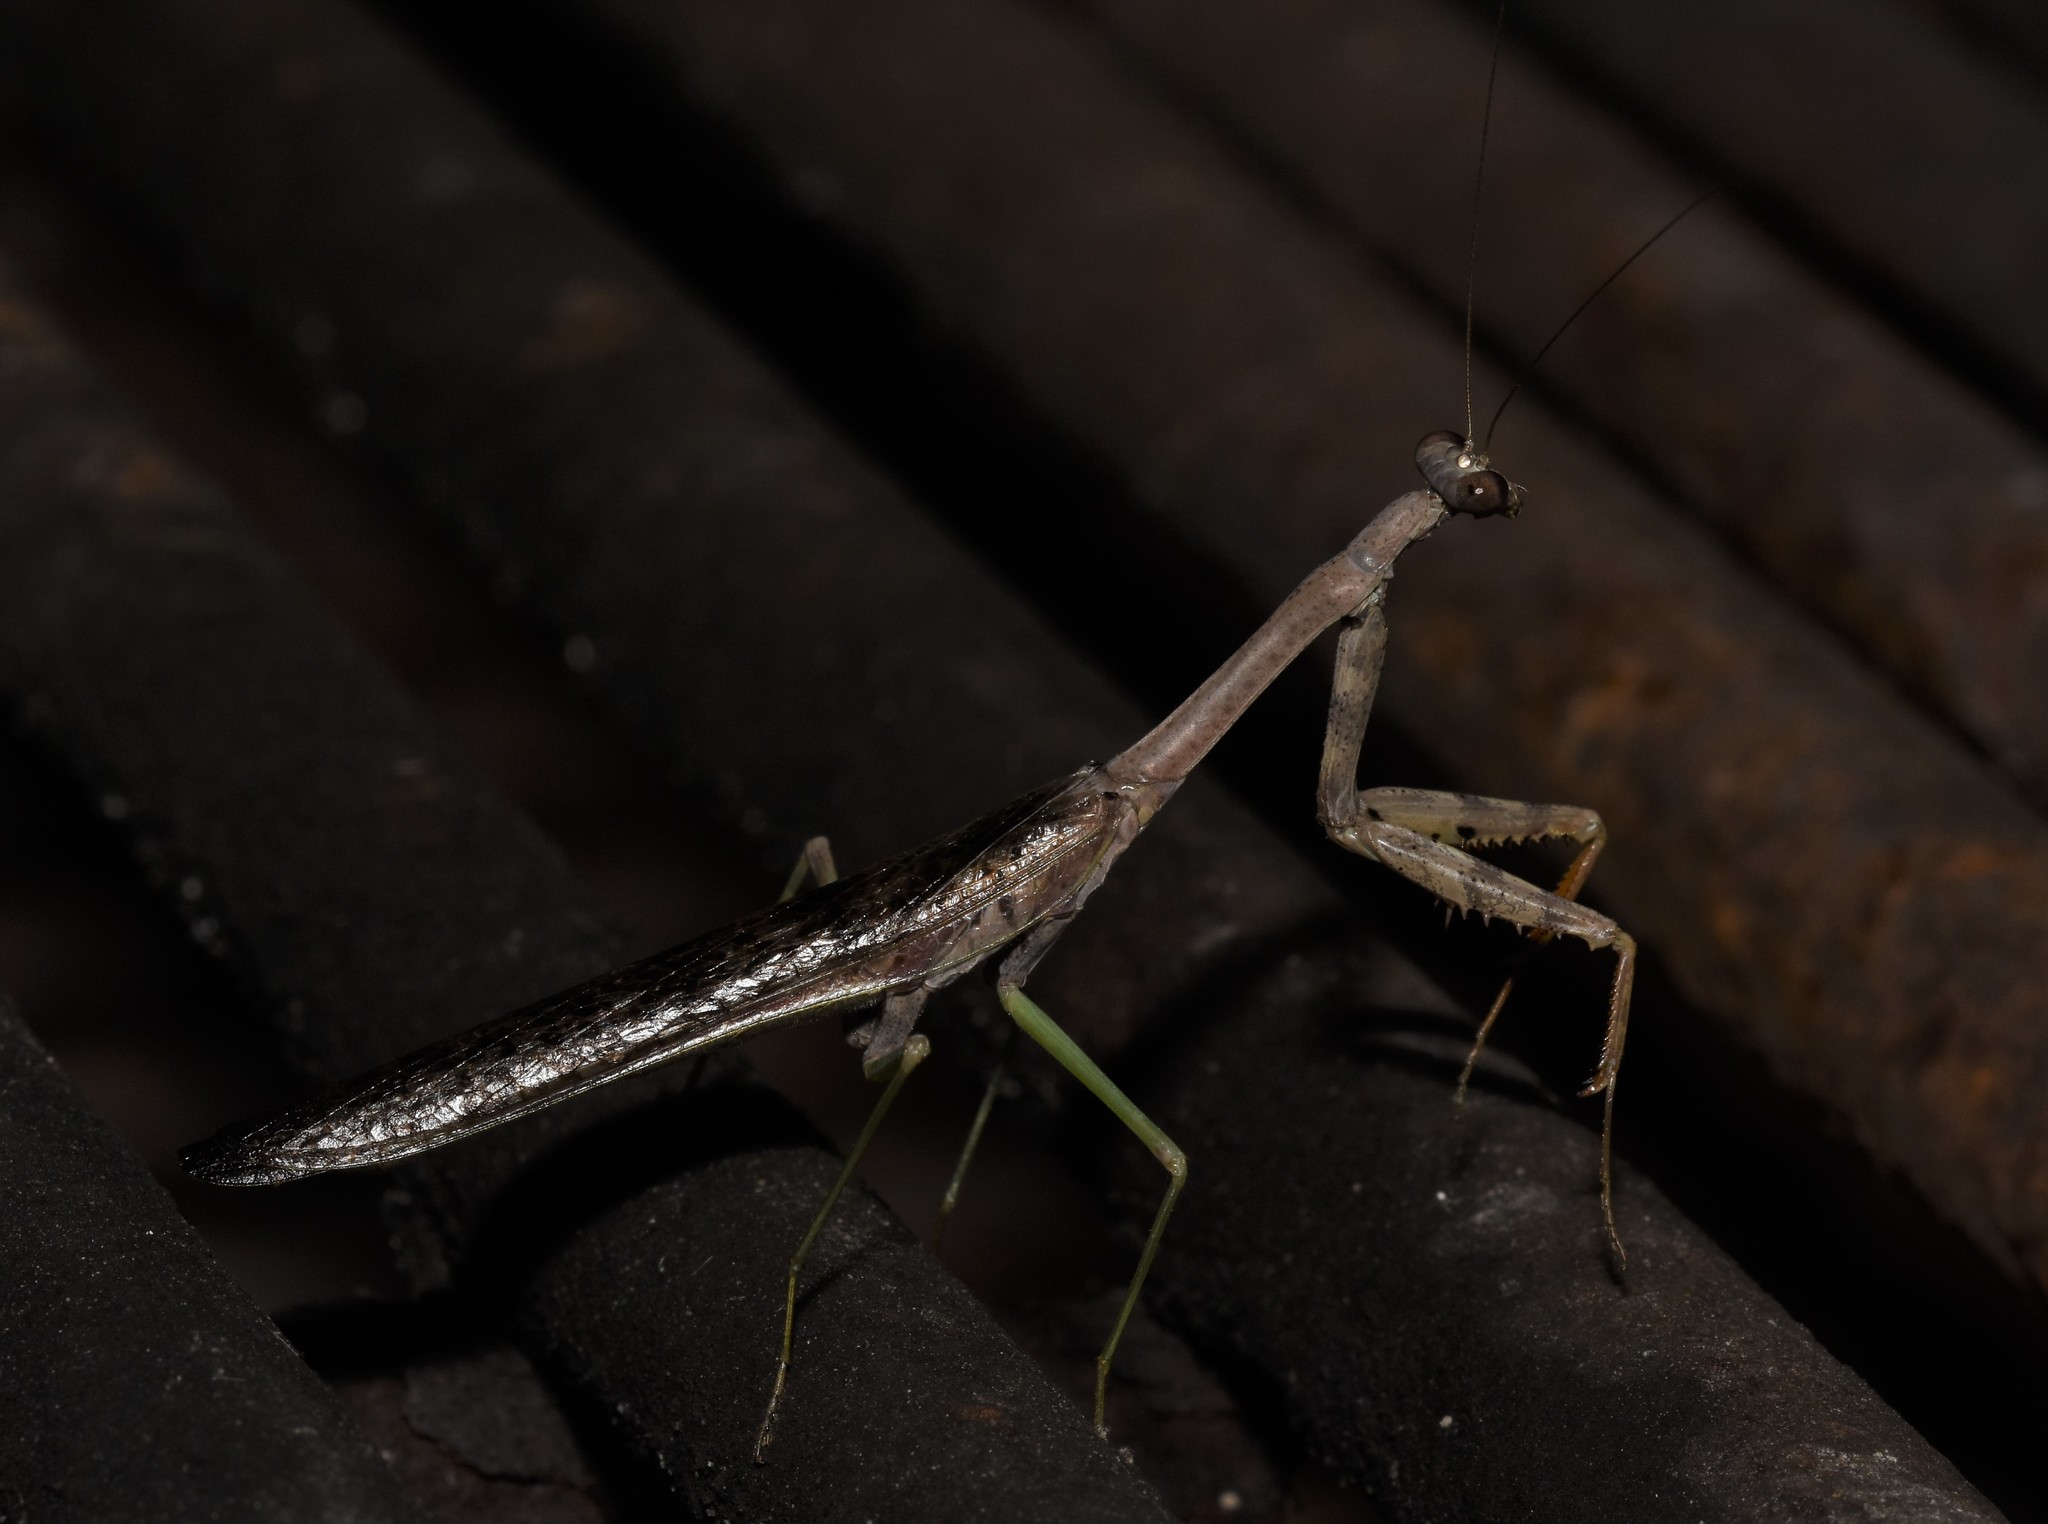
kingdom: Animalia
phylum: Arthropoda
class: Insecta
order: Mantodea
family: Mantidae
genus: Stagmomantis
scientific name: Stagmomantis carolina
